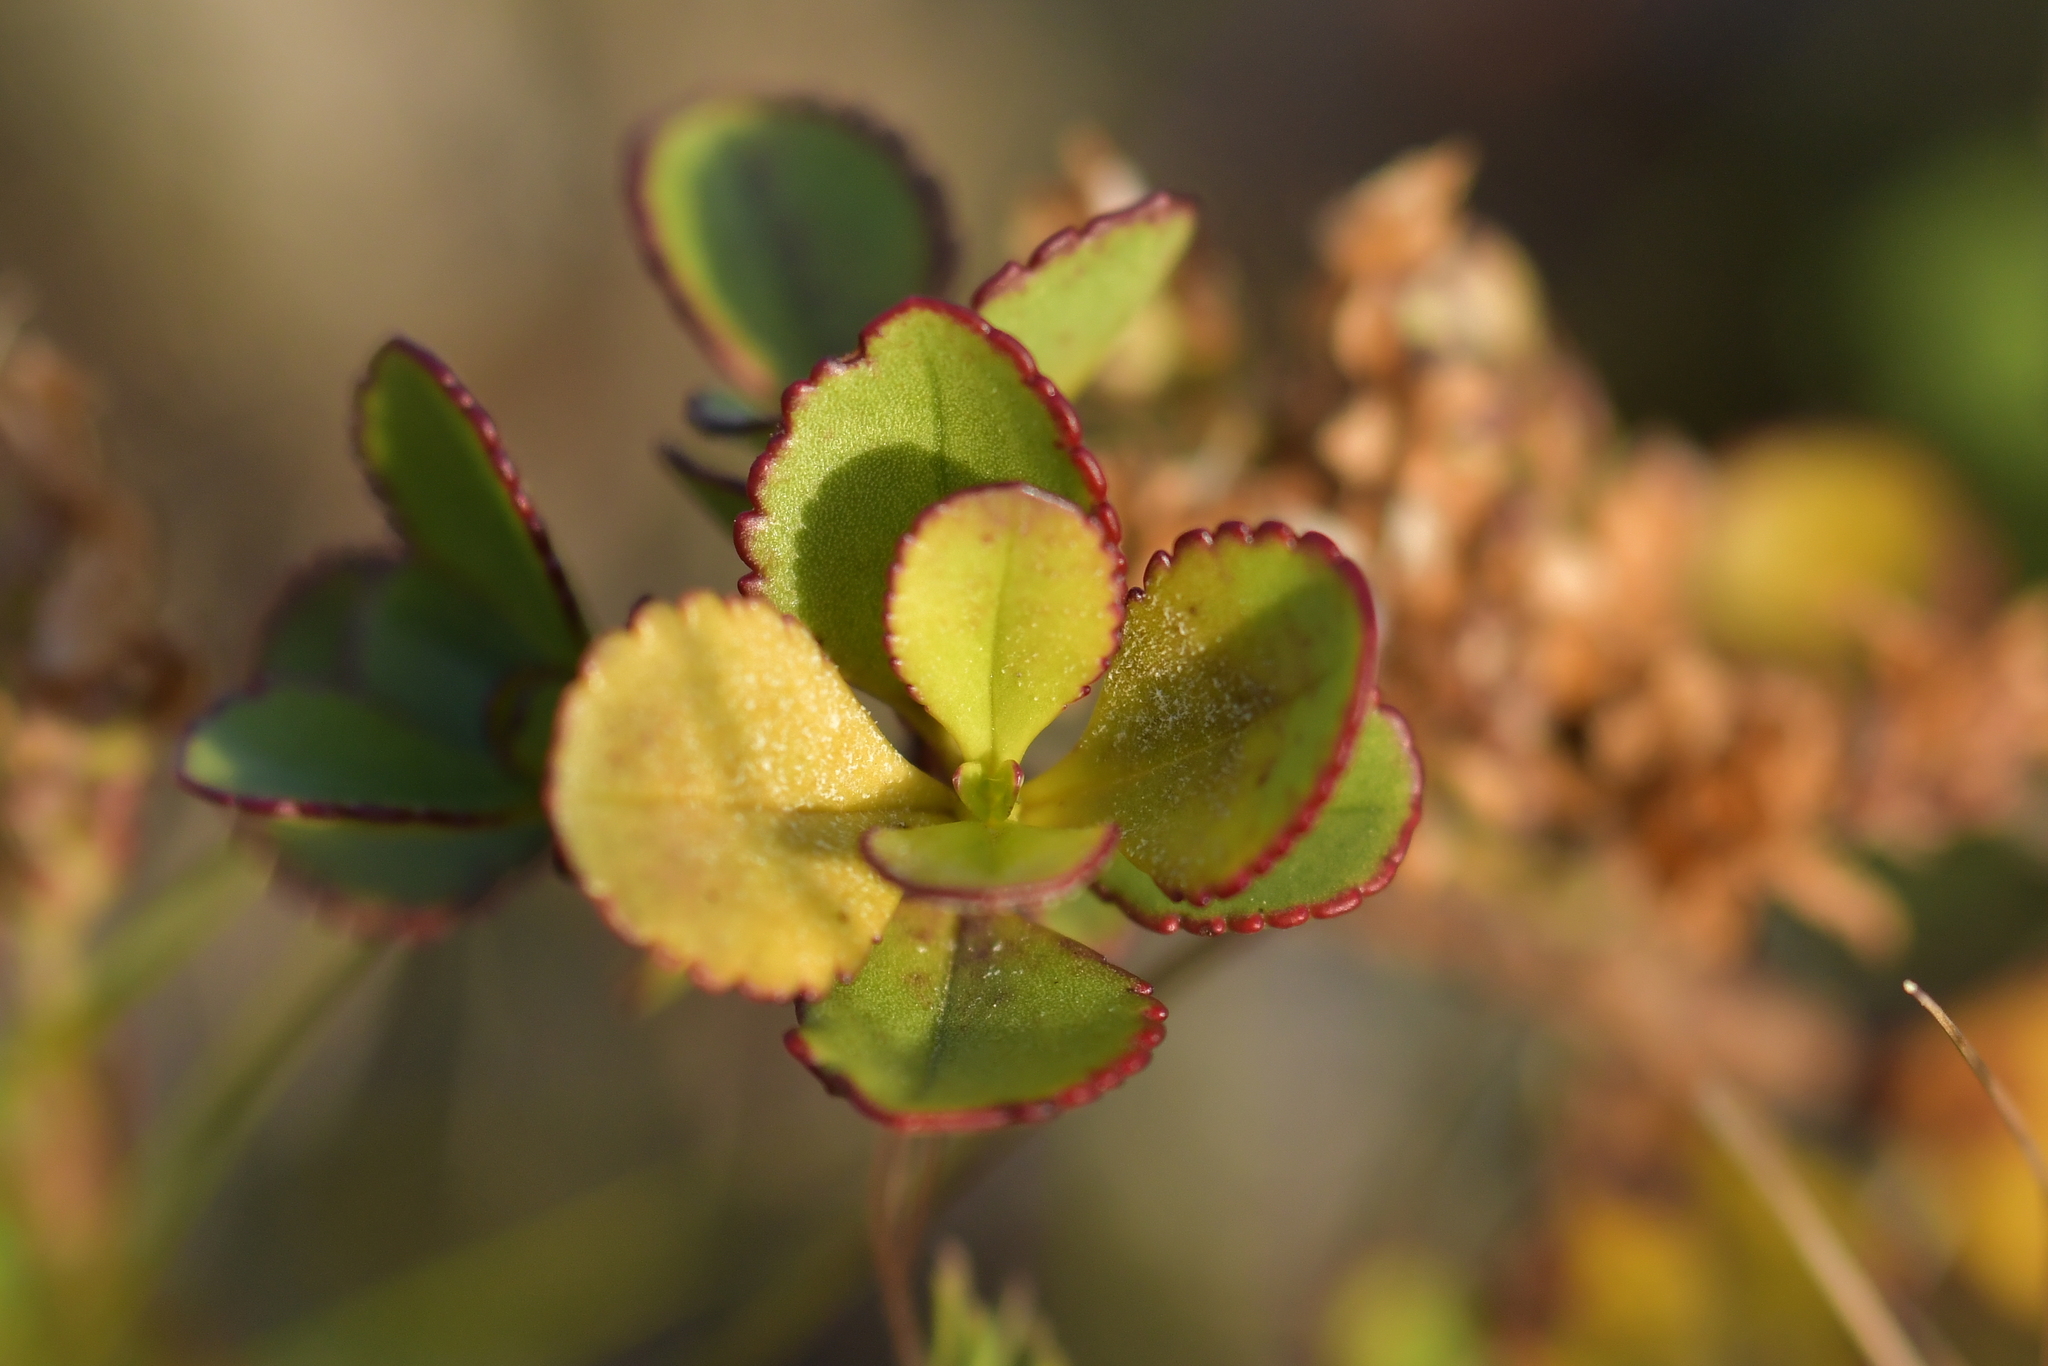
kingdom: Plantae
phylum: Tracheophyta
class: Magnoliopsida
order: Lamiales
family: Plantaginaceae
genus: Veronica
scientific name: Veronica lavaudiana
